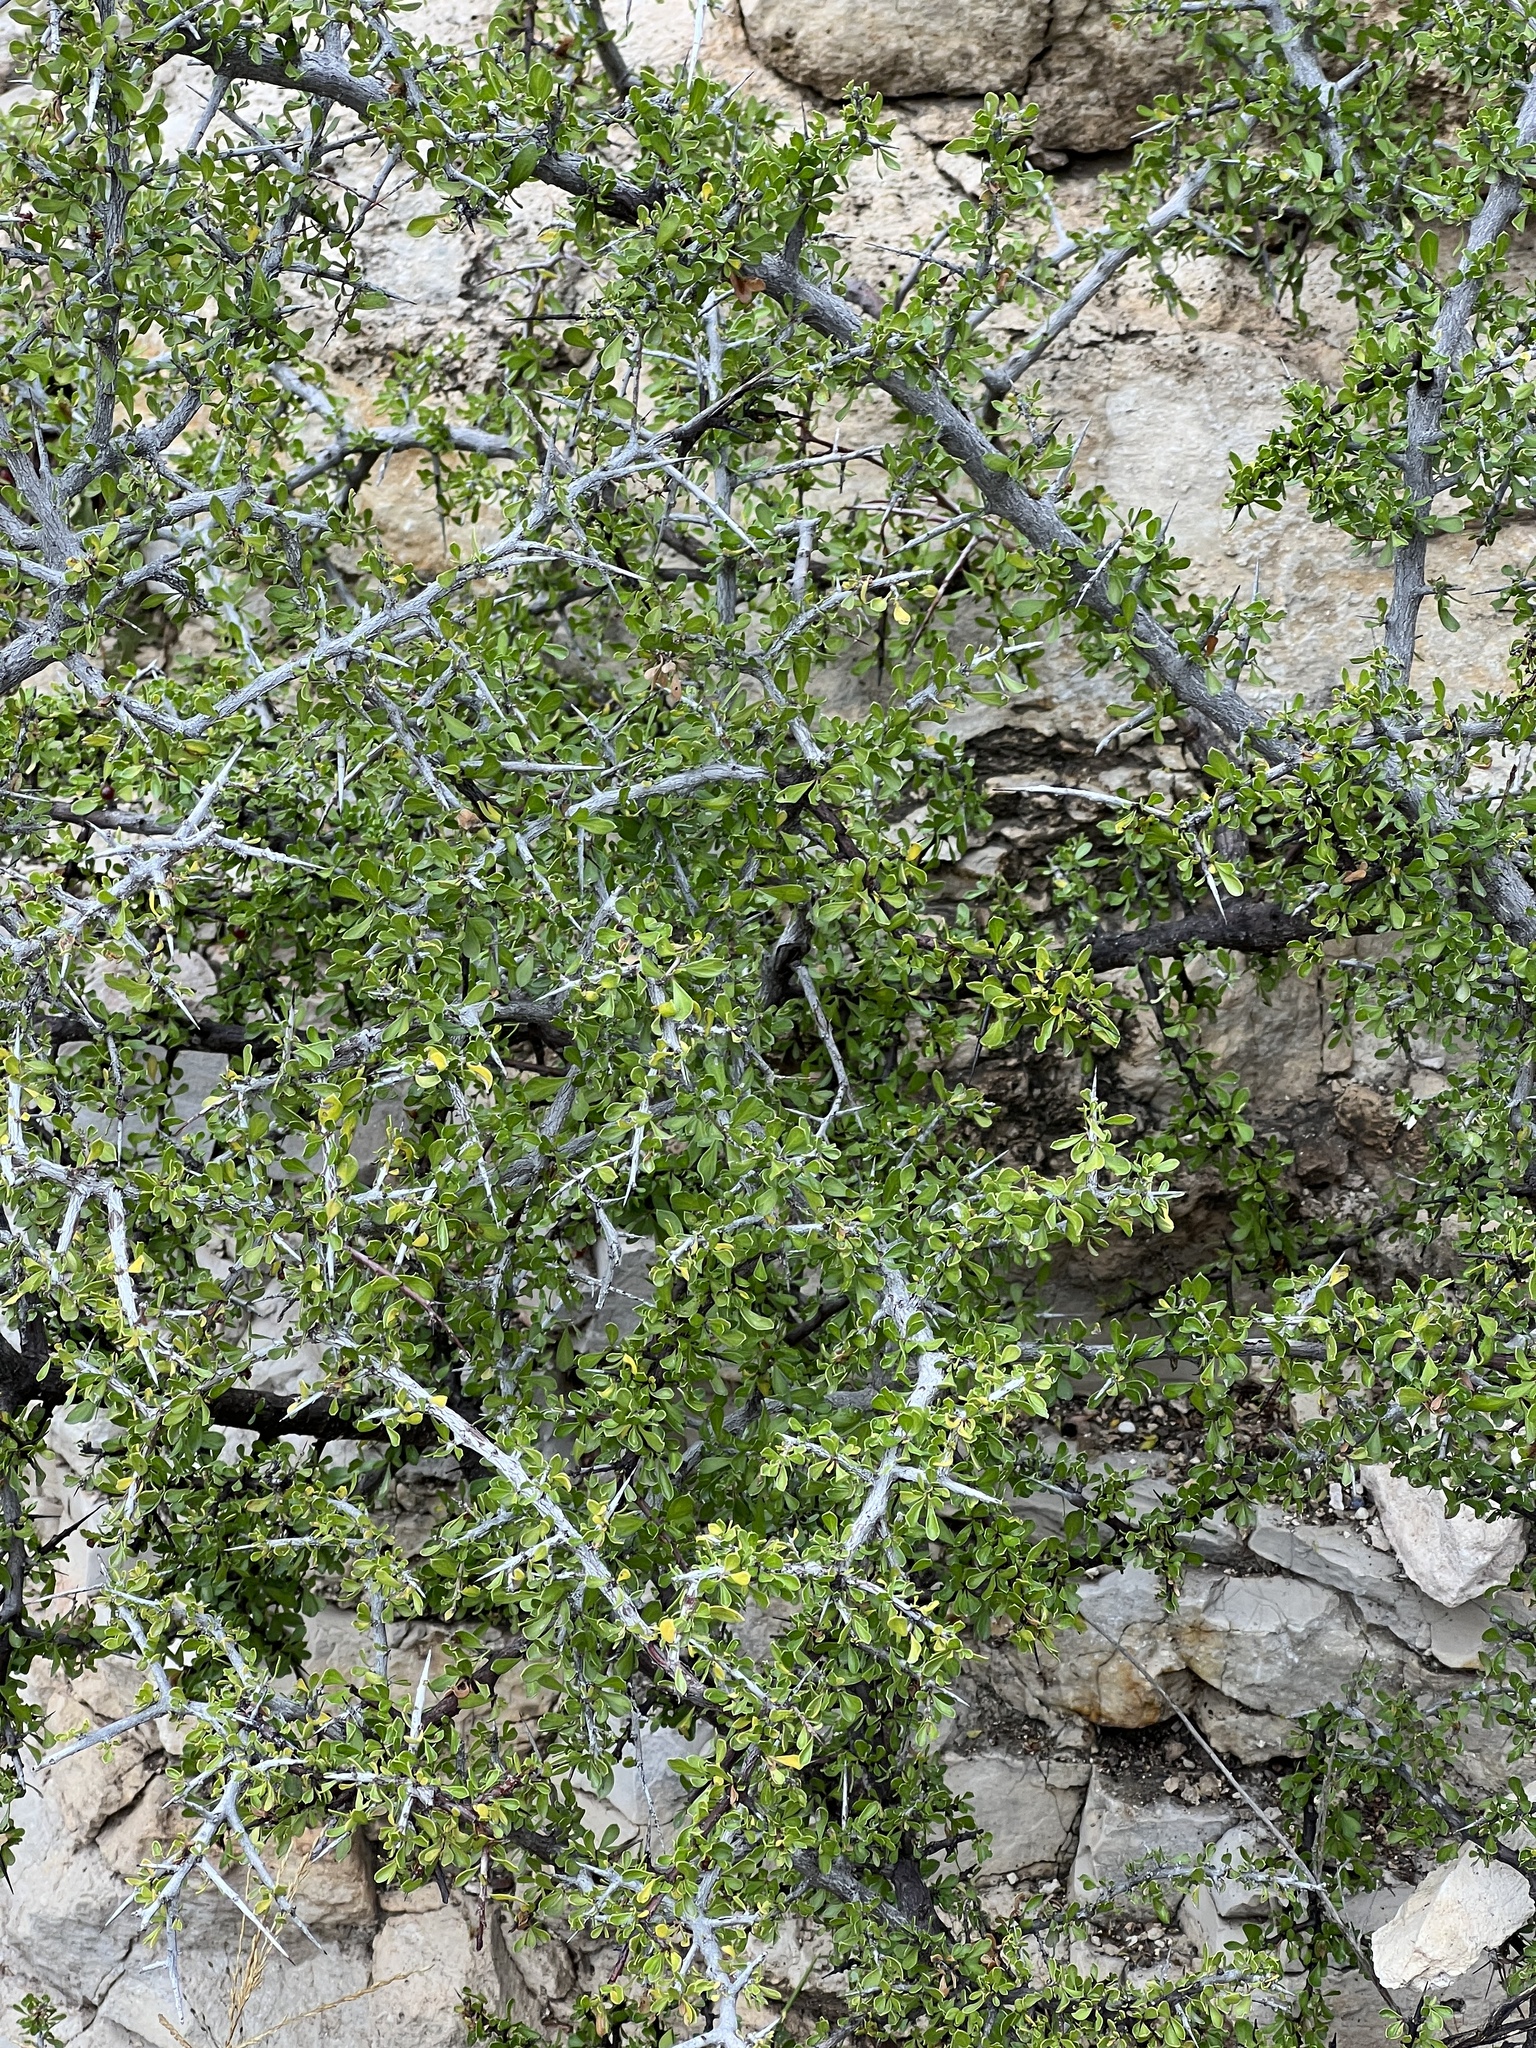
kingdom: Plantae
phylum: Tracheophyta
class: Magnoliopsida
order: Rosales
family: Rhamnaceae
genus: Condalia
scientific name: Condalia viridis
